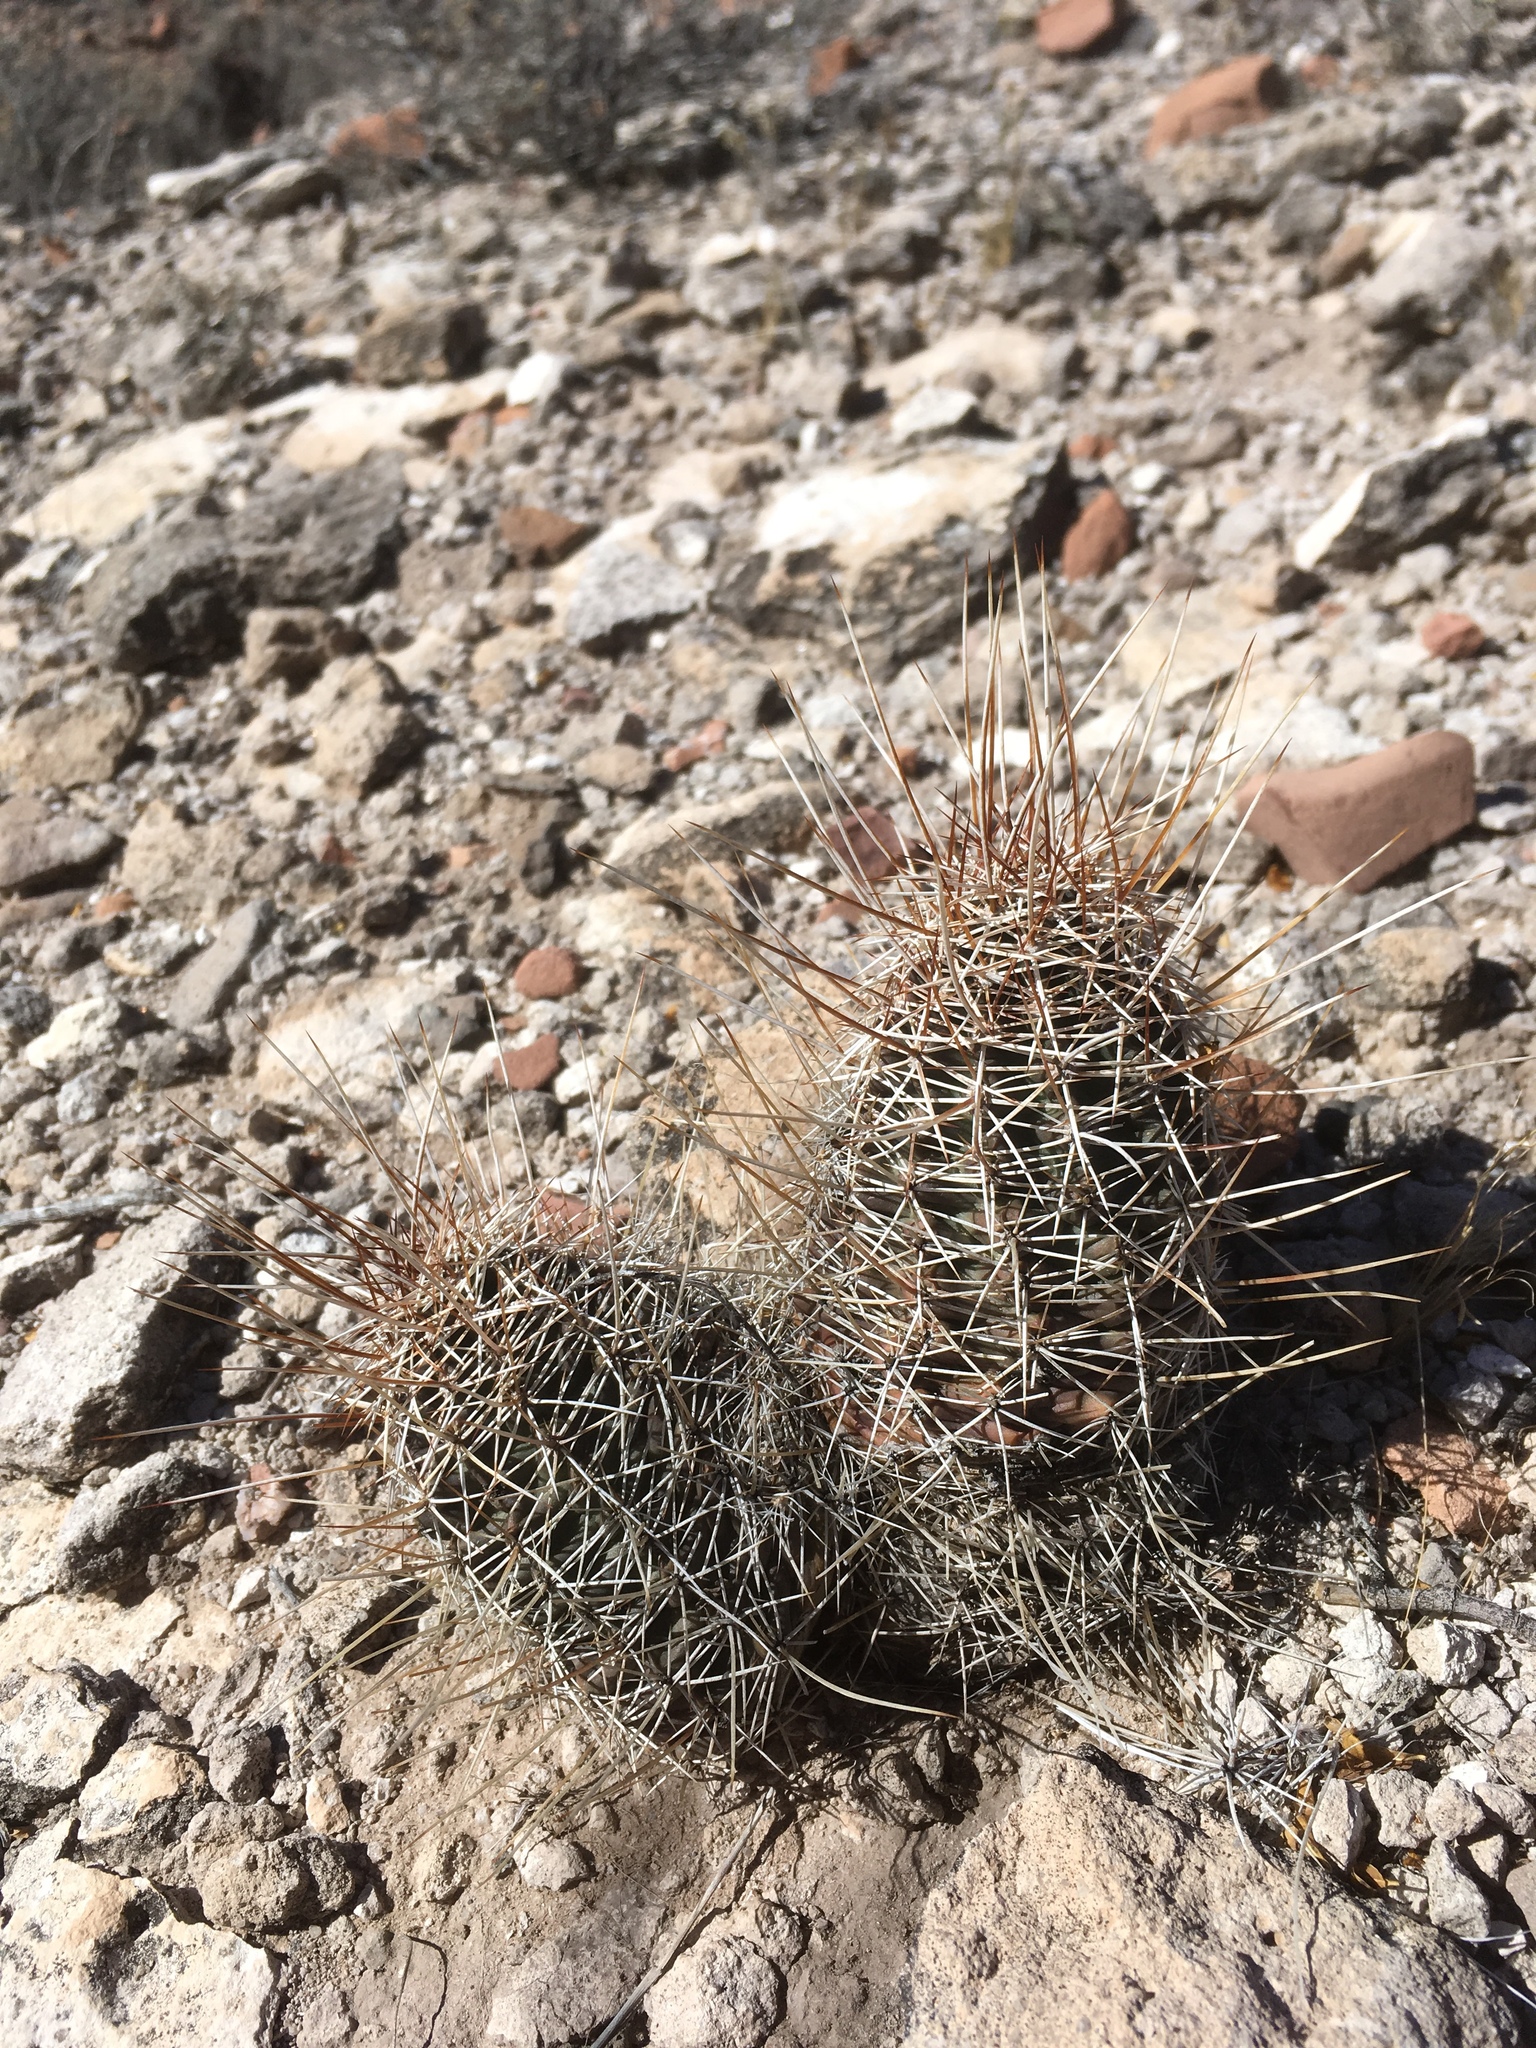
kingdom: Plantae
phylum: Tracheophyta
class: Magnoliopsida
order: Caryophyllales
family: Cactaceae
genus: Echinocereus
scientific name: Echinocereus fendleri
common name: Fendler's hedgehog cactus
